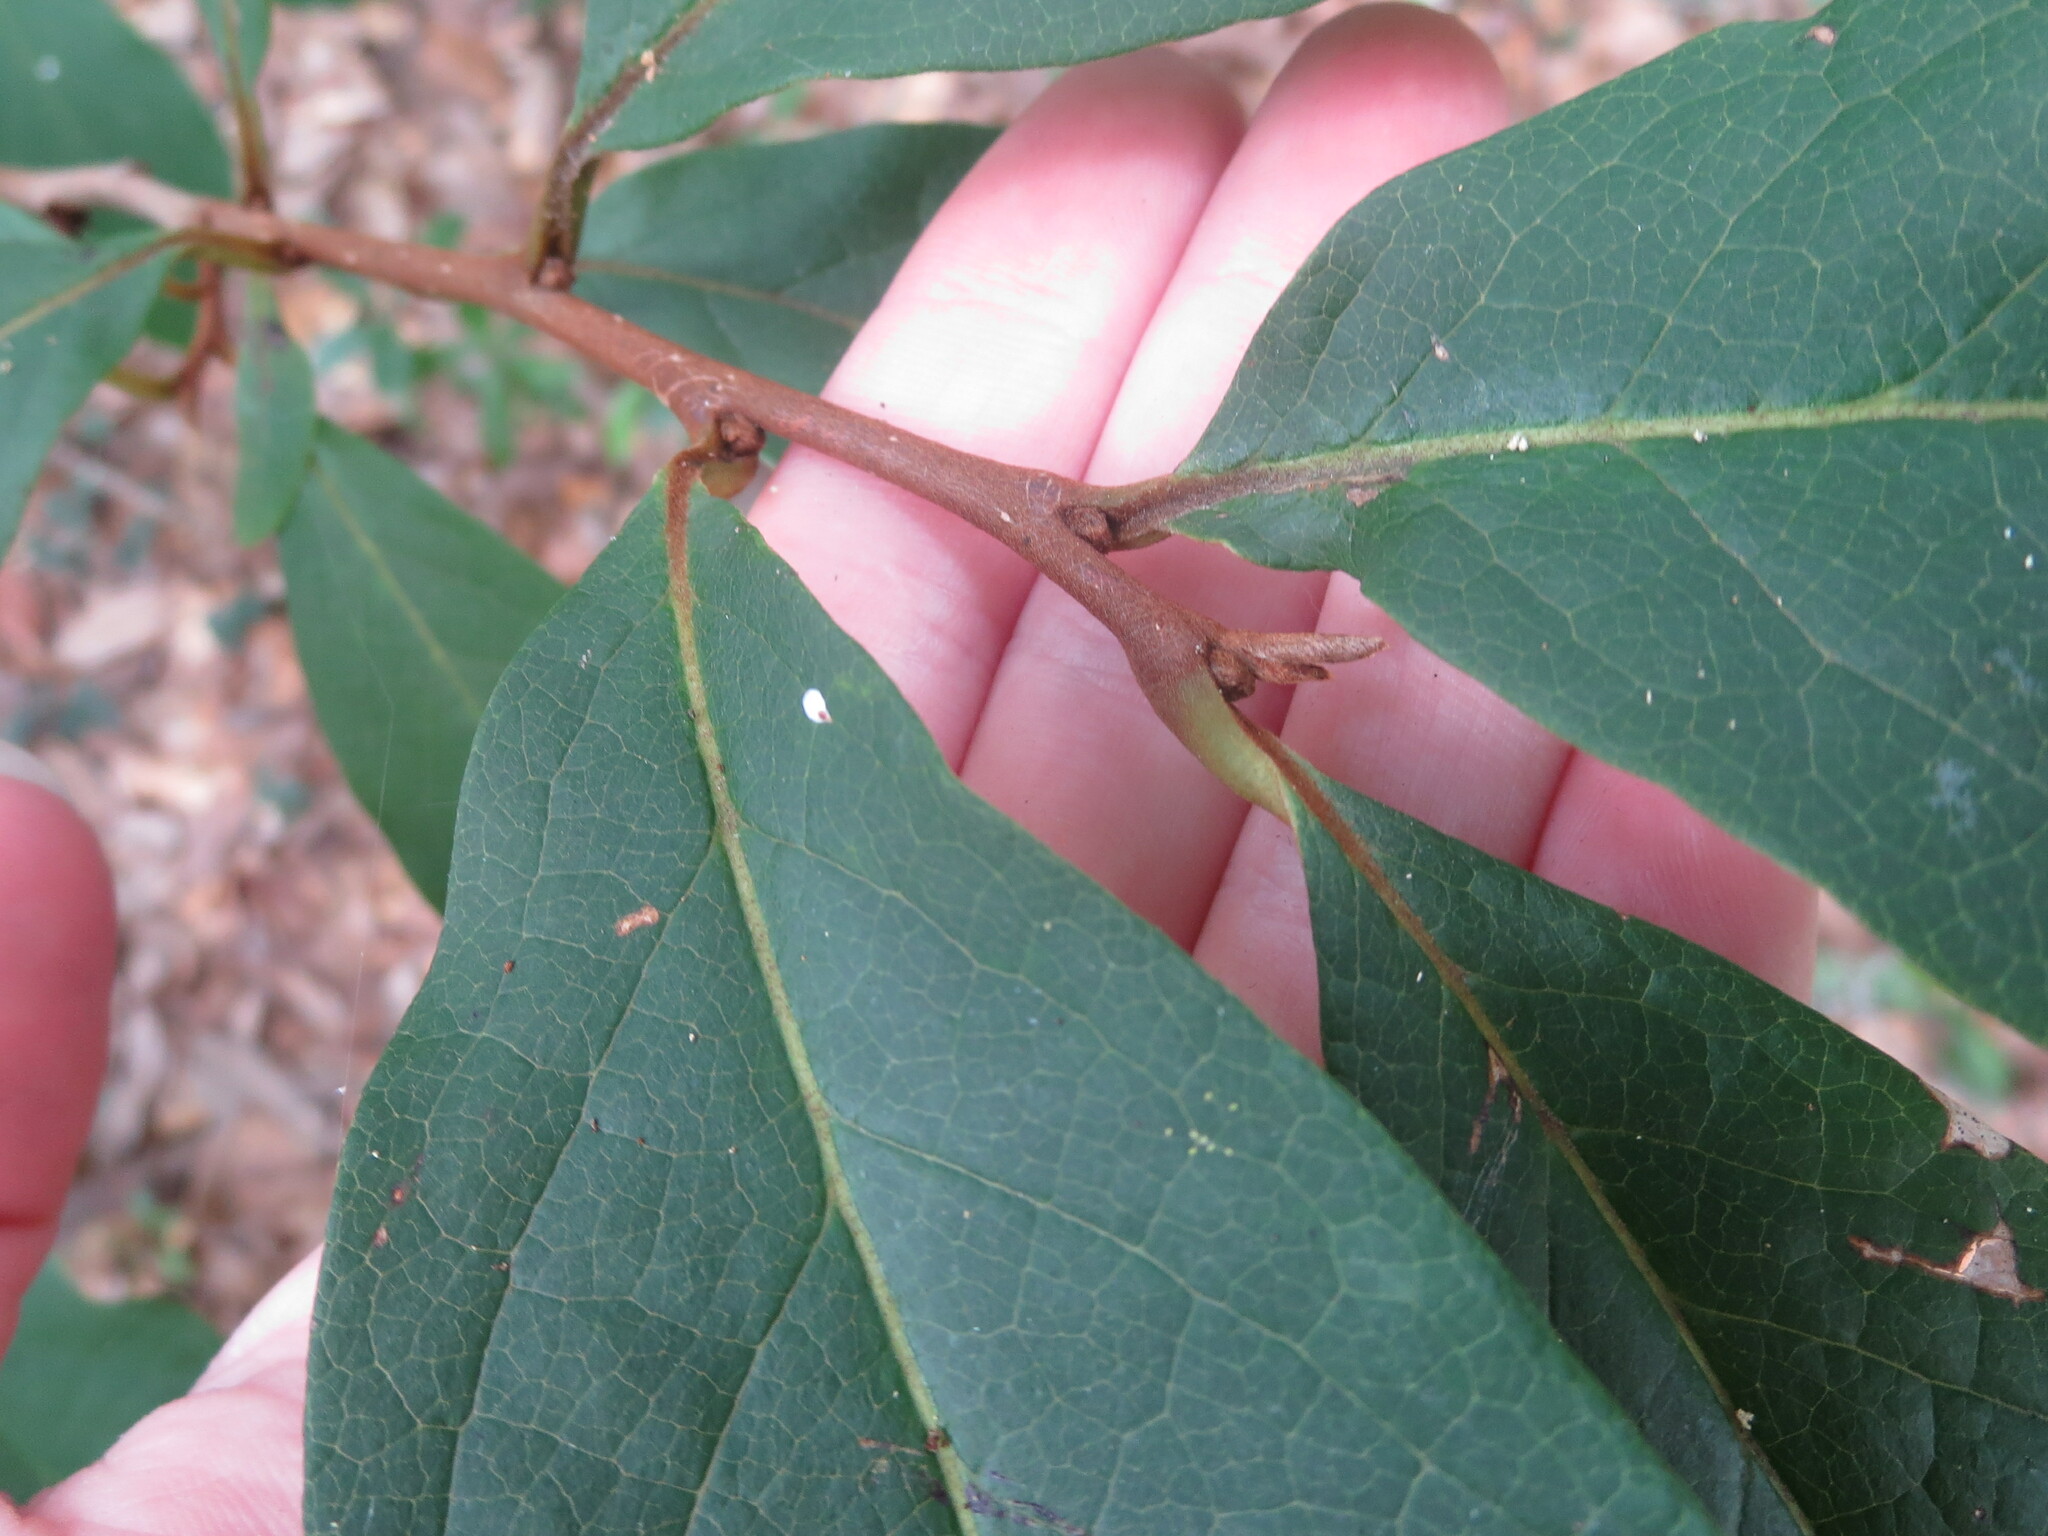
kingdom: Plantae
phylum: Tracheophyta
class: Magnoliopsida
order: Magnoliales
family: Annonaceae
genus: Asimina
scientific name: Asimina parviflora
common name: Dwarf pawpaw
